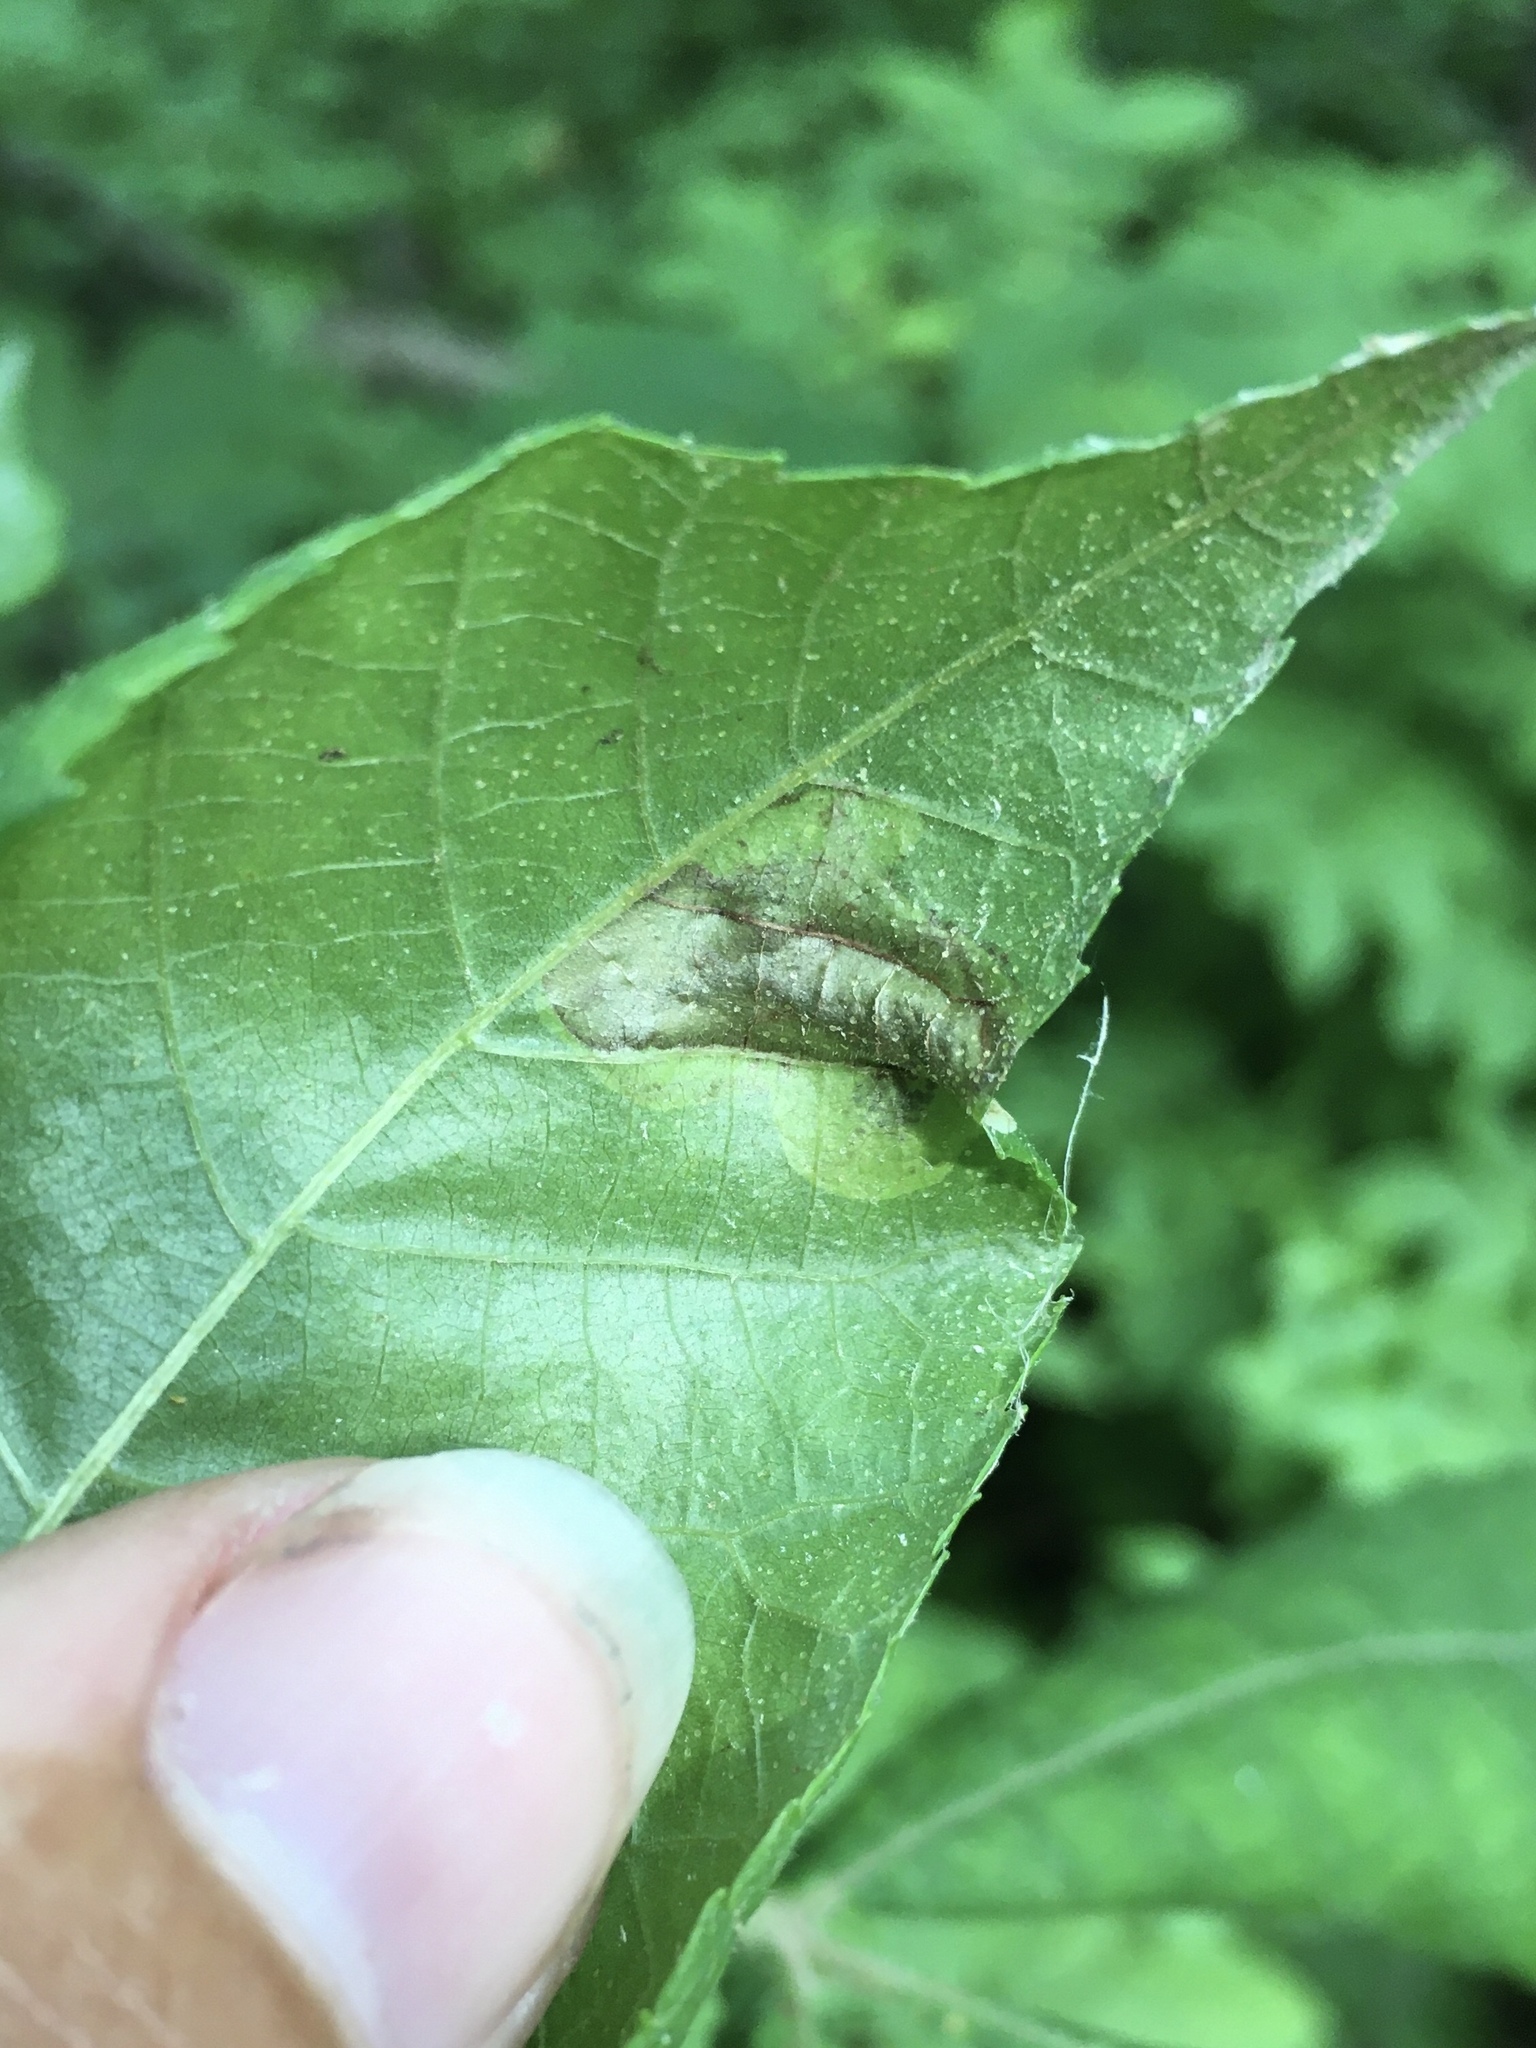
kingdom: Animalia
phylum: Arthropoda
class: Insecta
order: Lepidoptera
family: Gracillariidae
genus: Cameraria
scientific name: Cameraria caryaefoliella
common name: Pecan leafminer moth
